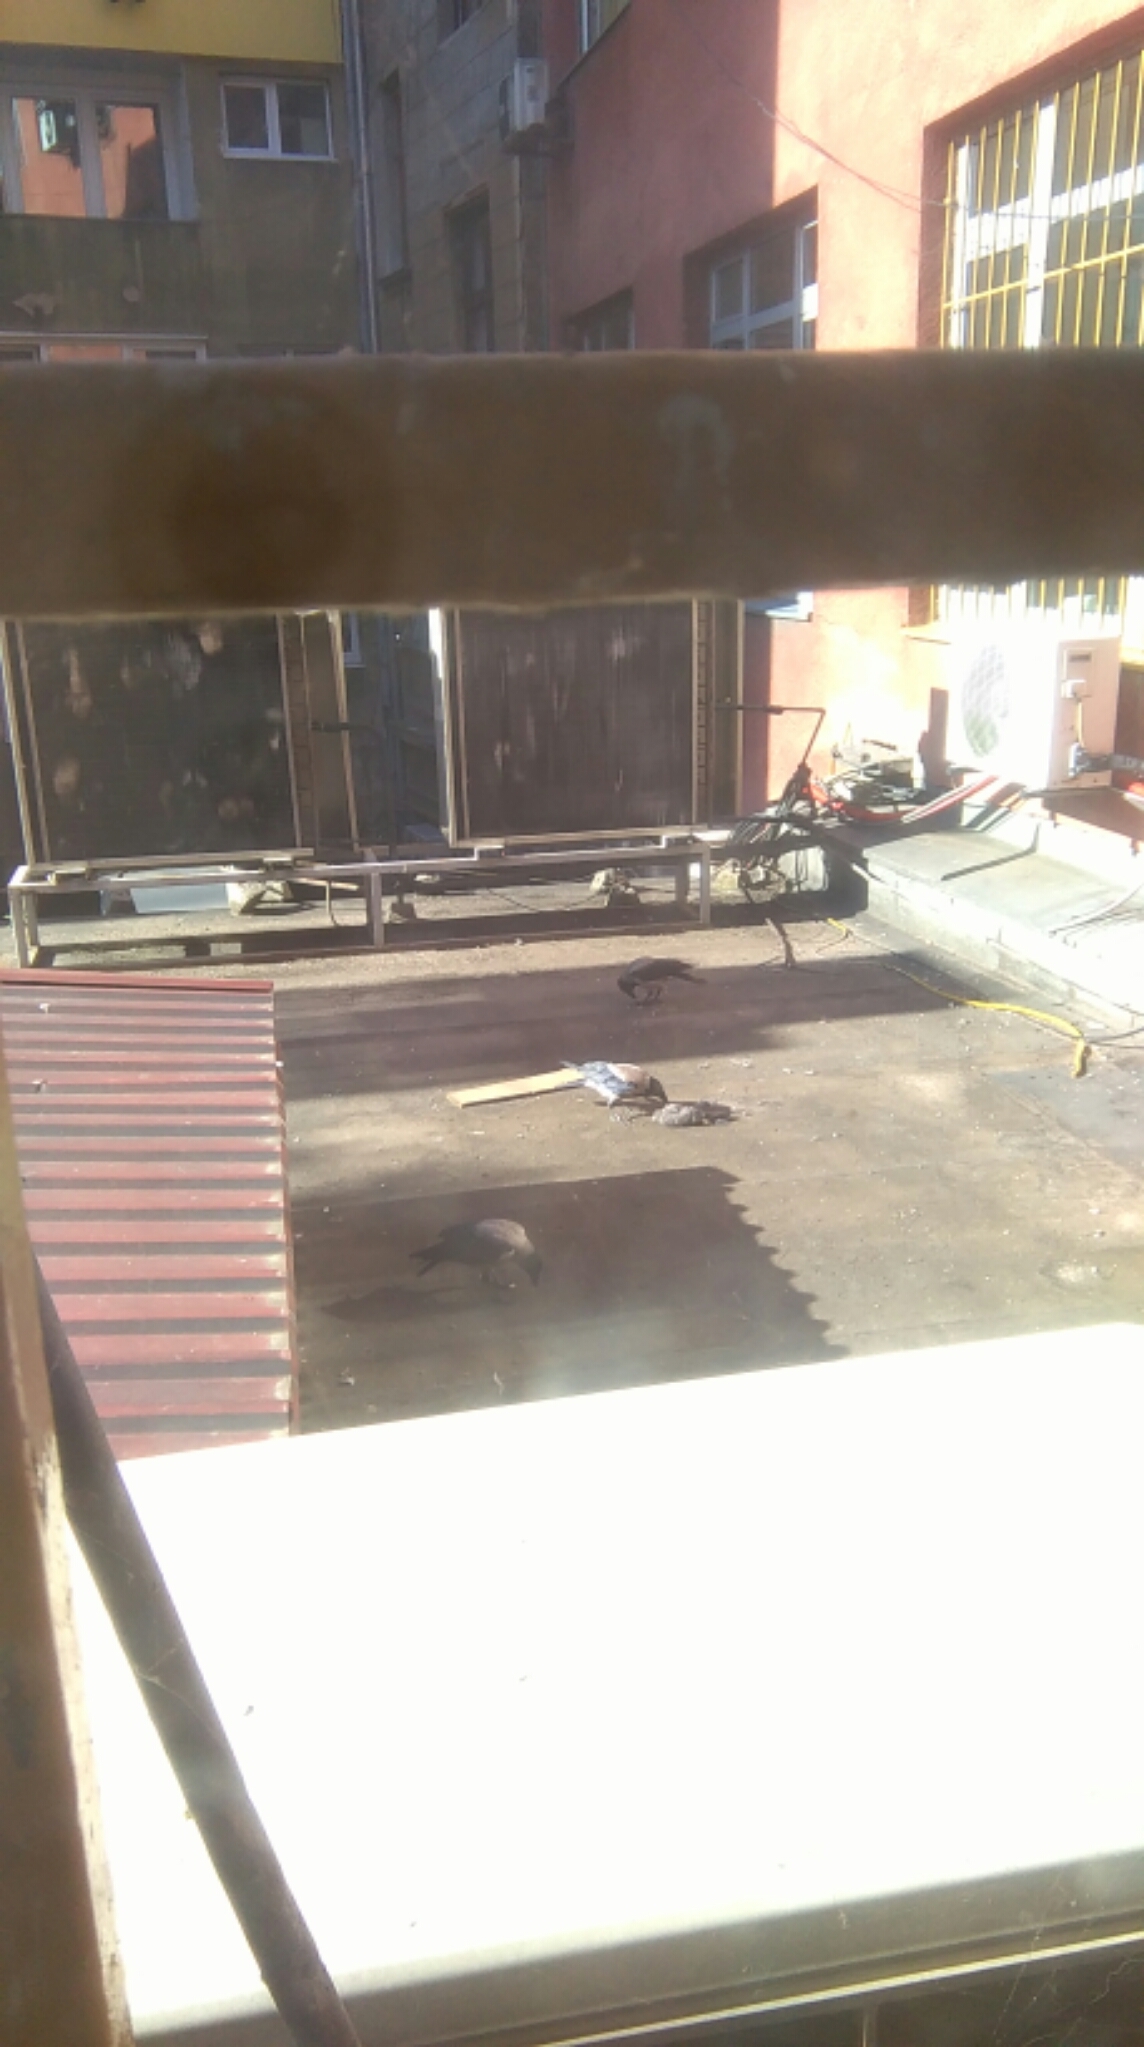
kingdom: Animalia
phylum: Chordata
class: Aves
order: Passeriformes
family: Corvidae
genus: Corvus
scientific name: Corvus cornix
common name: Hooded crow
